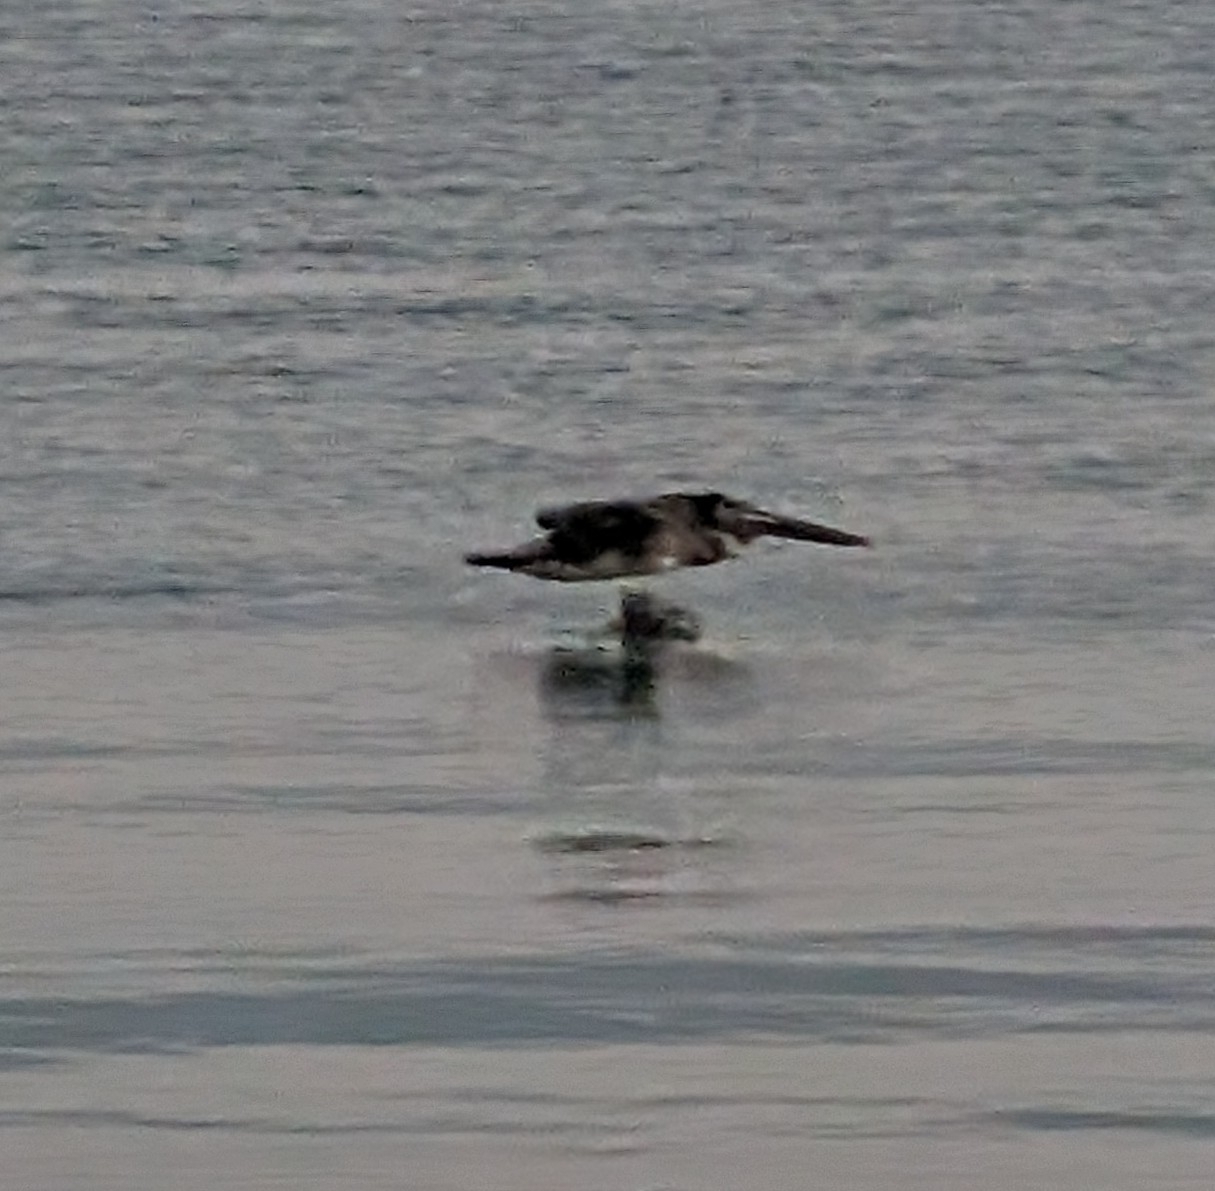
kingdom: Animalia
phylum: Chordata
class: Aves
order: Pelecaniformes
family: Pelecanidae
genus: Pelecanus
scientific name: Pelecanus occidentalis
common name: Brown pelican
